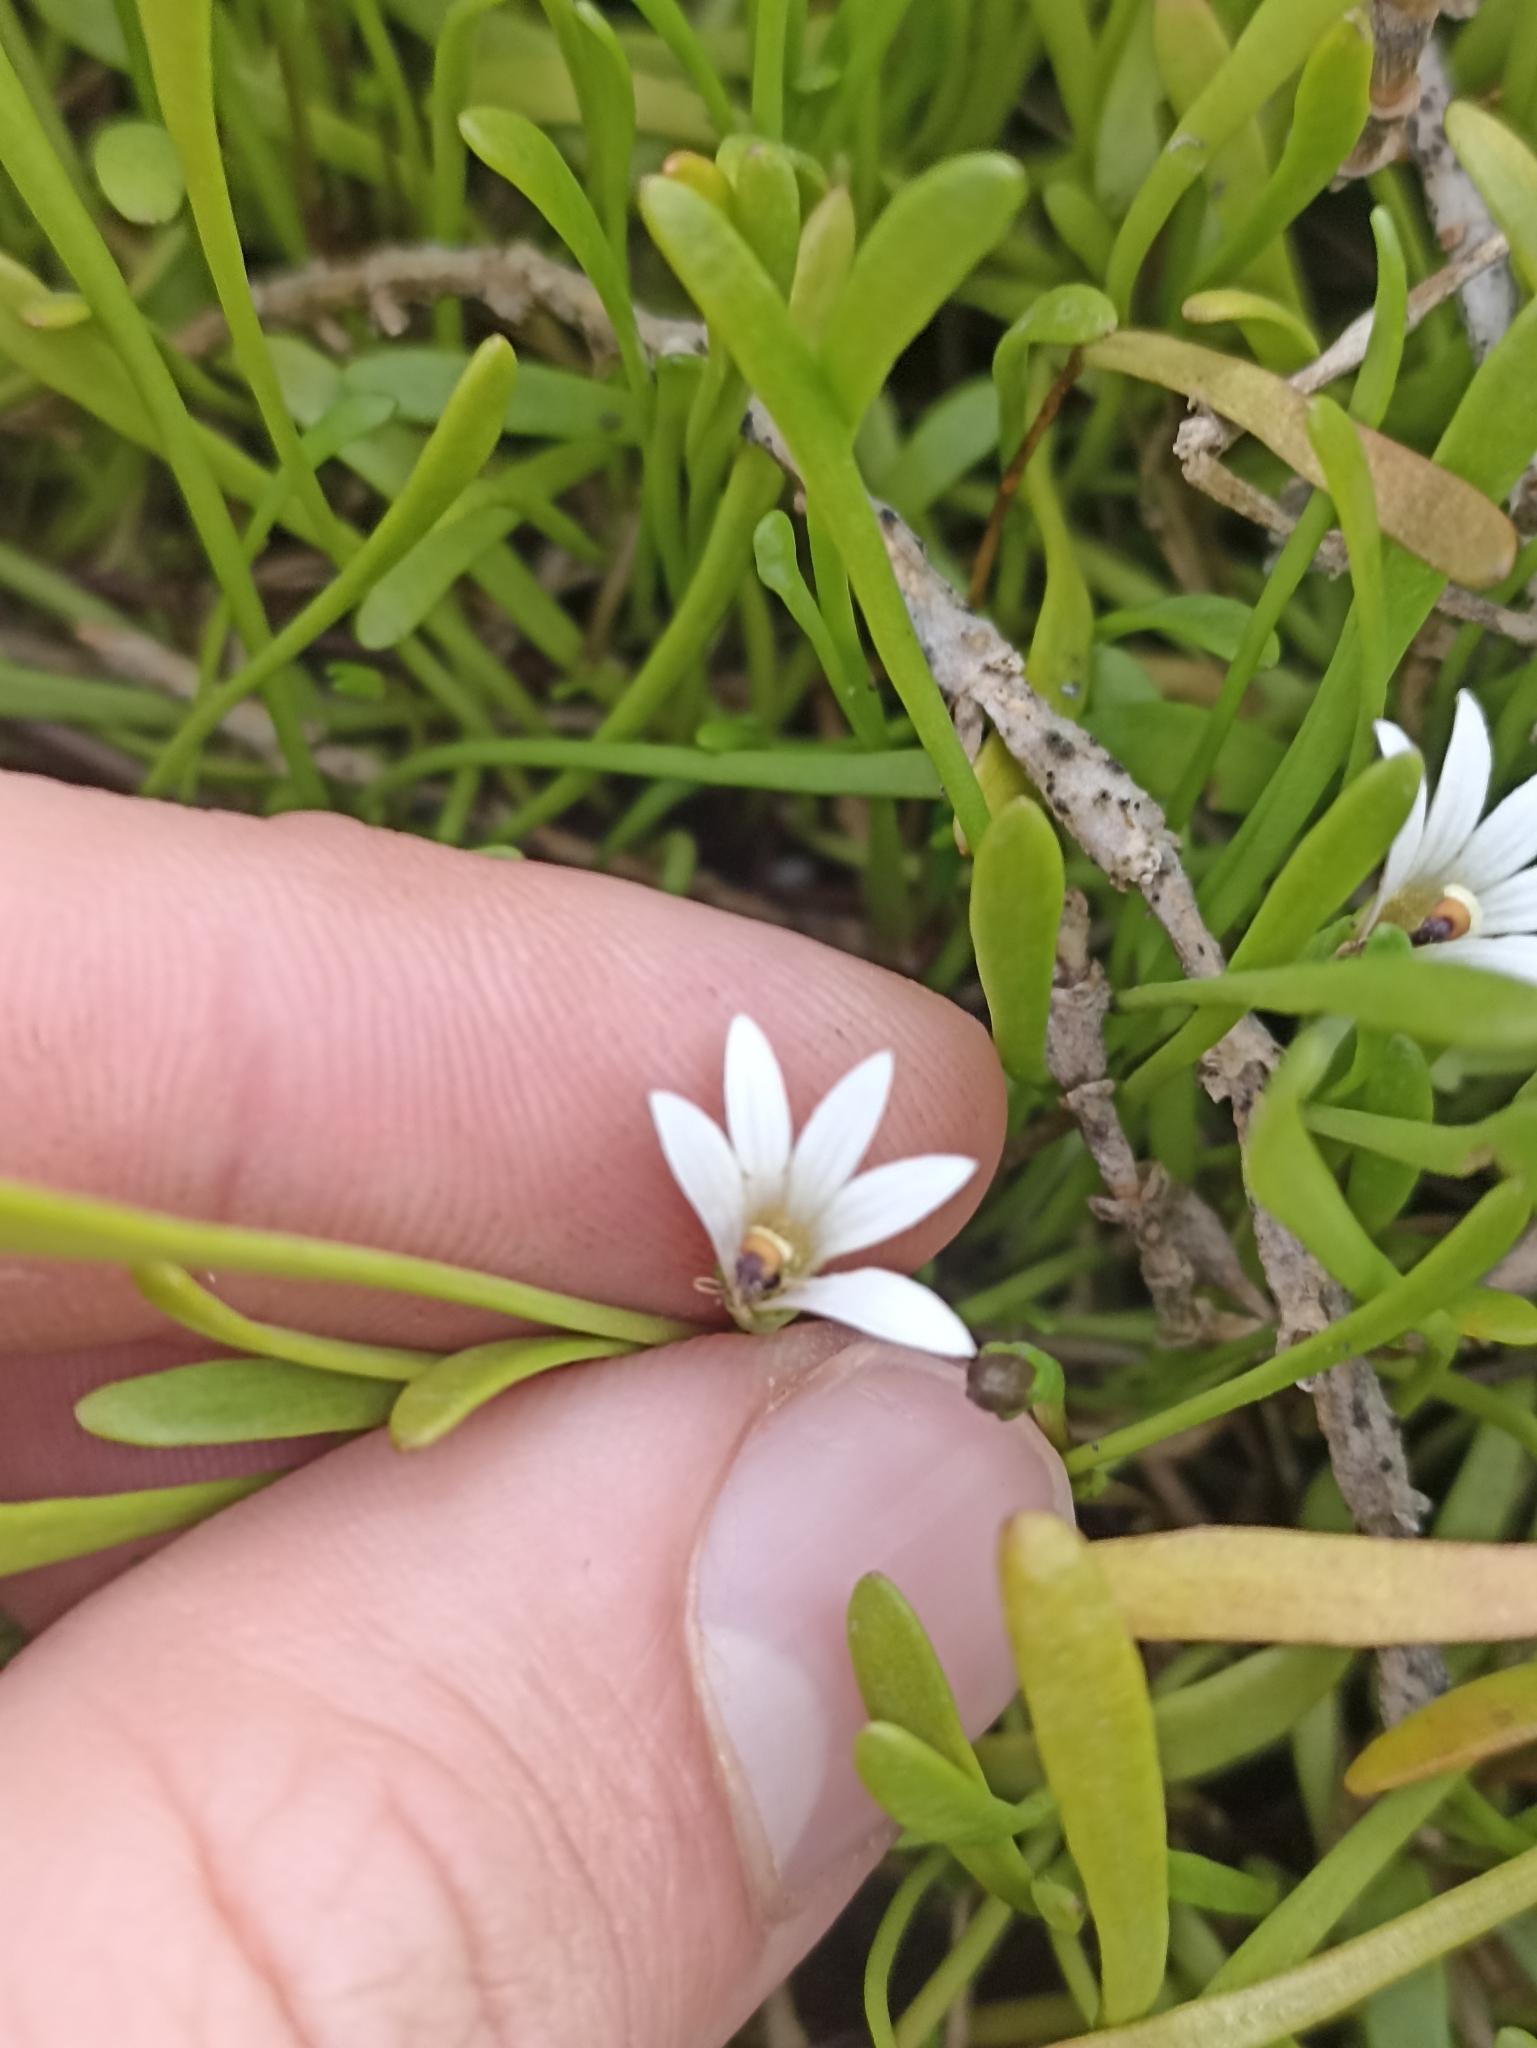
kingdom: Plantae
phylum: Tracheophyta
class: Magnoliopsida
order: Asterales
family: Goodeniaceae
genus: Goodenia
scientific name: Goodenia radicans
